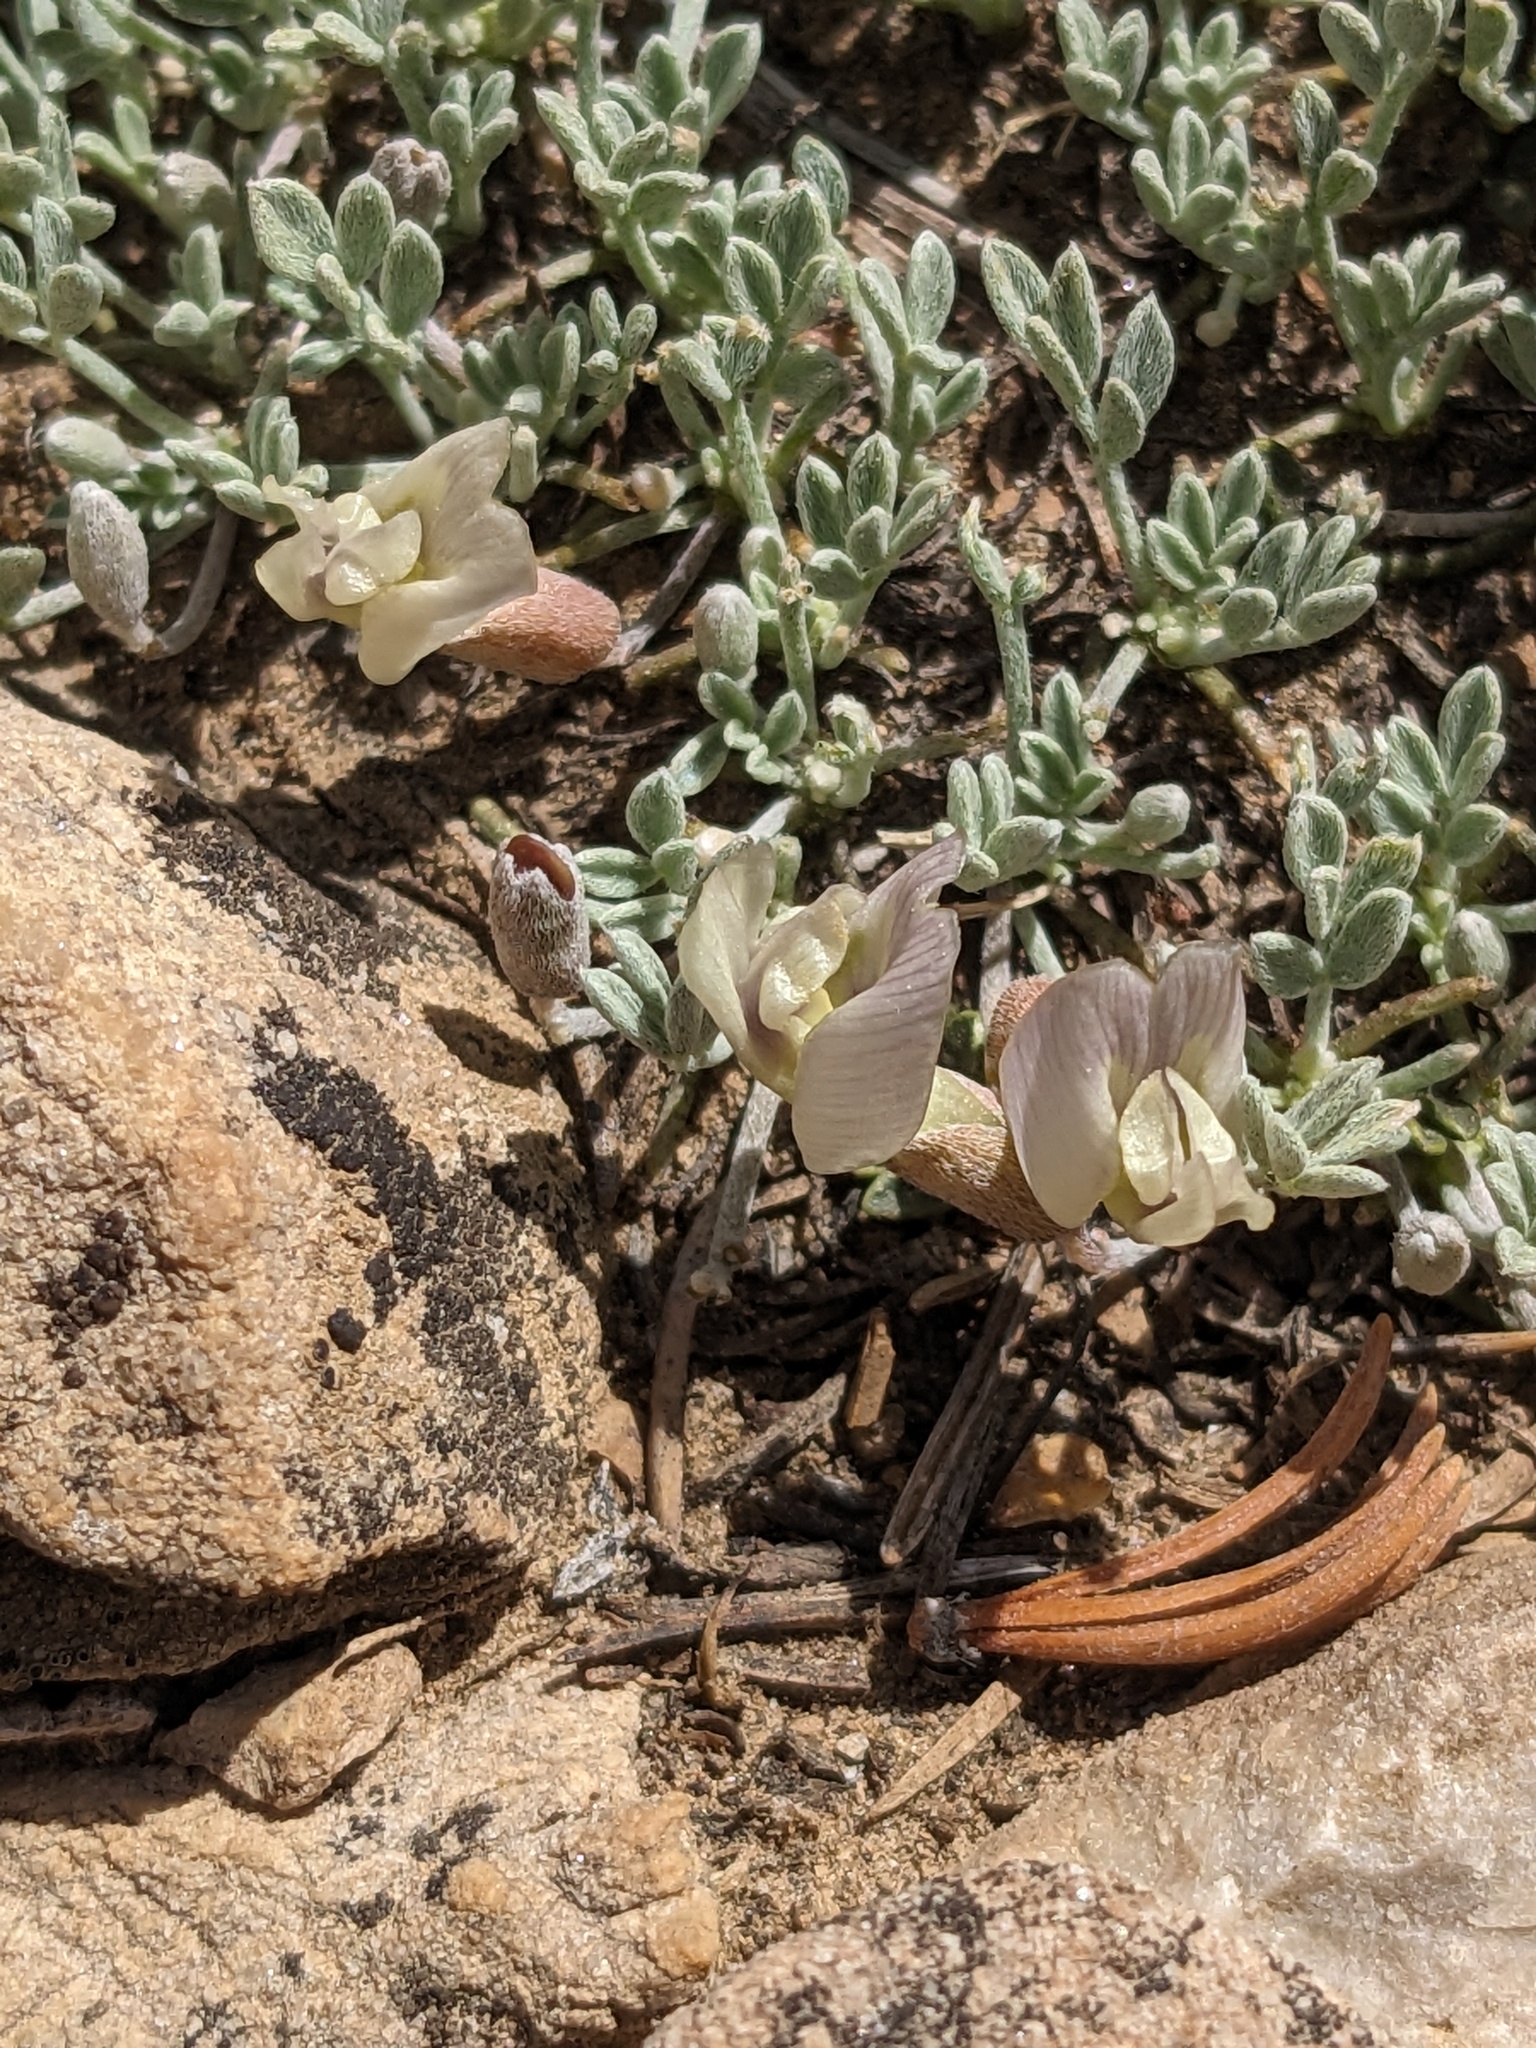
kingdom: Plantae
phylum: Tracheophyta
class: Magnoliopsida
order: Fabales
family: Fabaceae
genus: Astragalus
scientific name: Astragalus calycosus
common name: King's milkvetch
